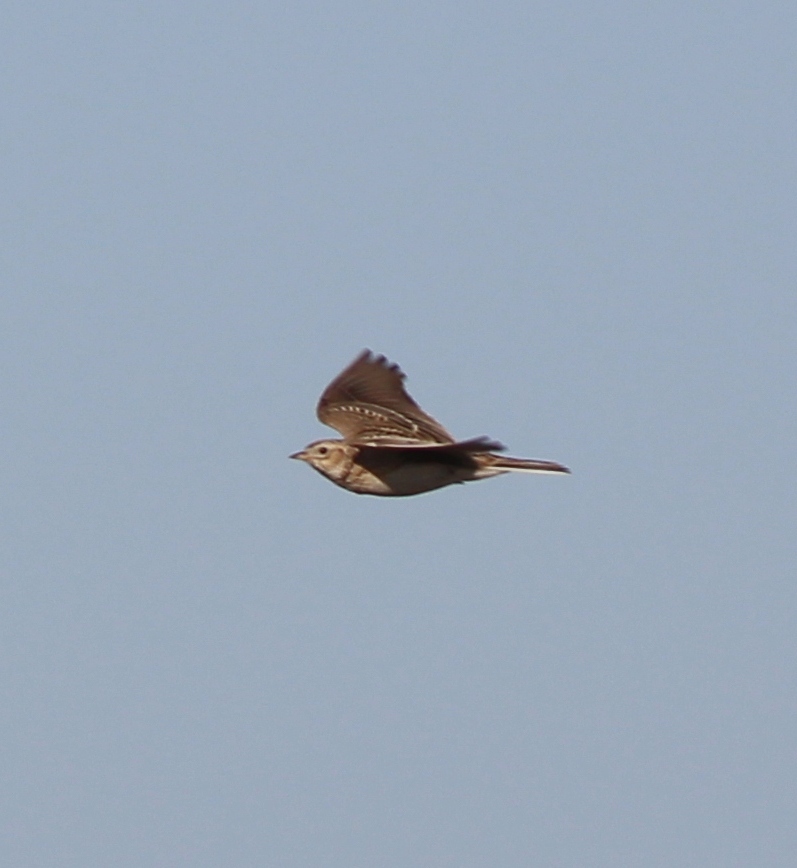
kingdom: Animalia
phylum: Chordata
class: Aves
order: Passeriformes
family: Alaudidae
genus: Alauda
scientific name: Alauda arvensis
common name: Eurasian skylark
